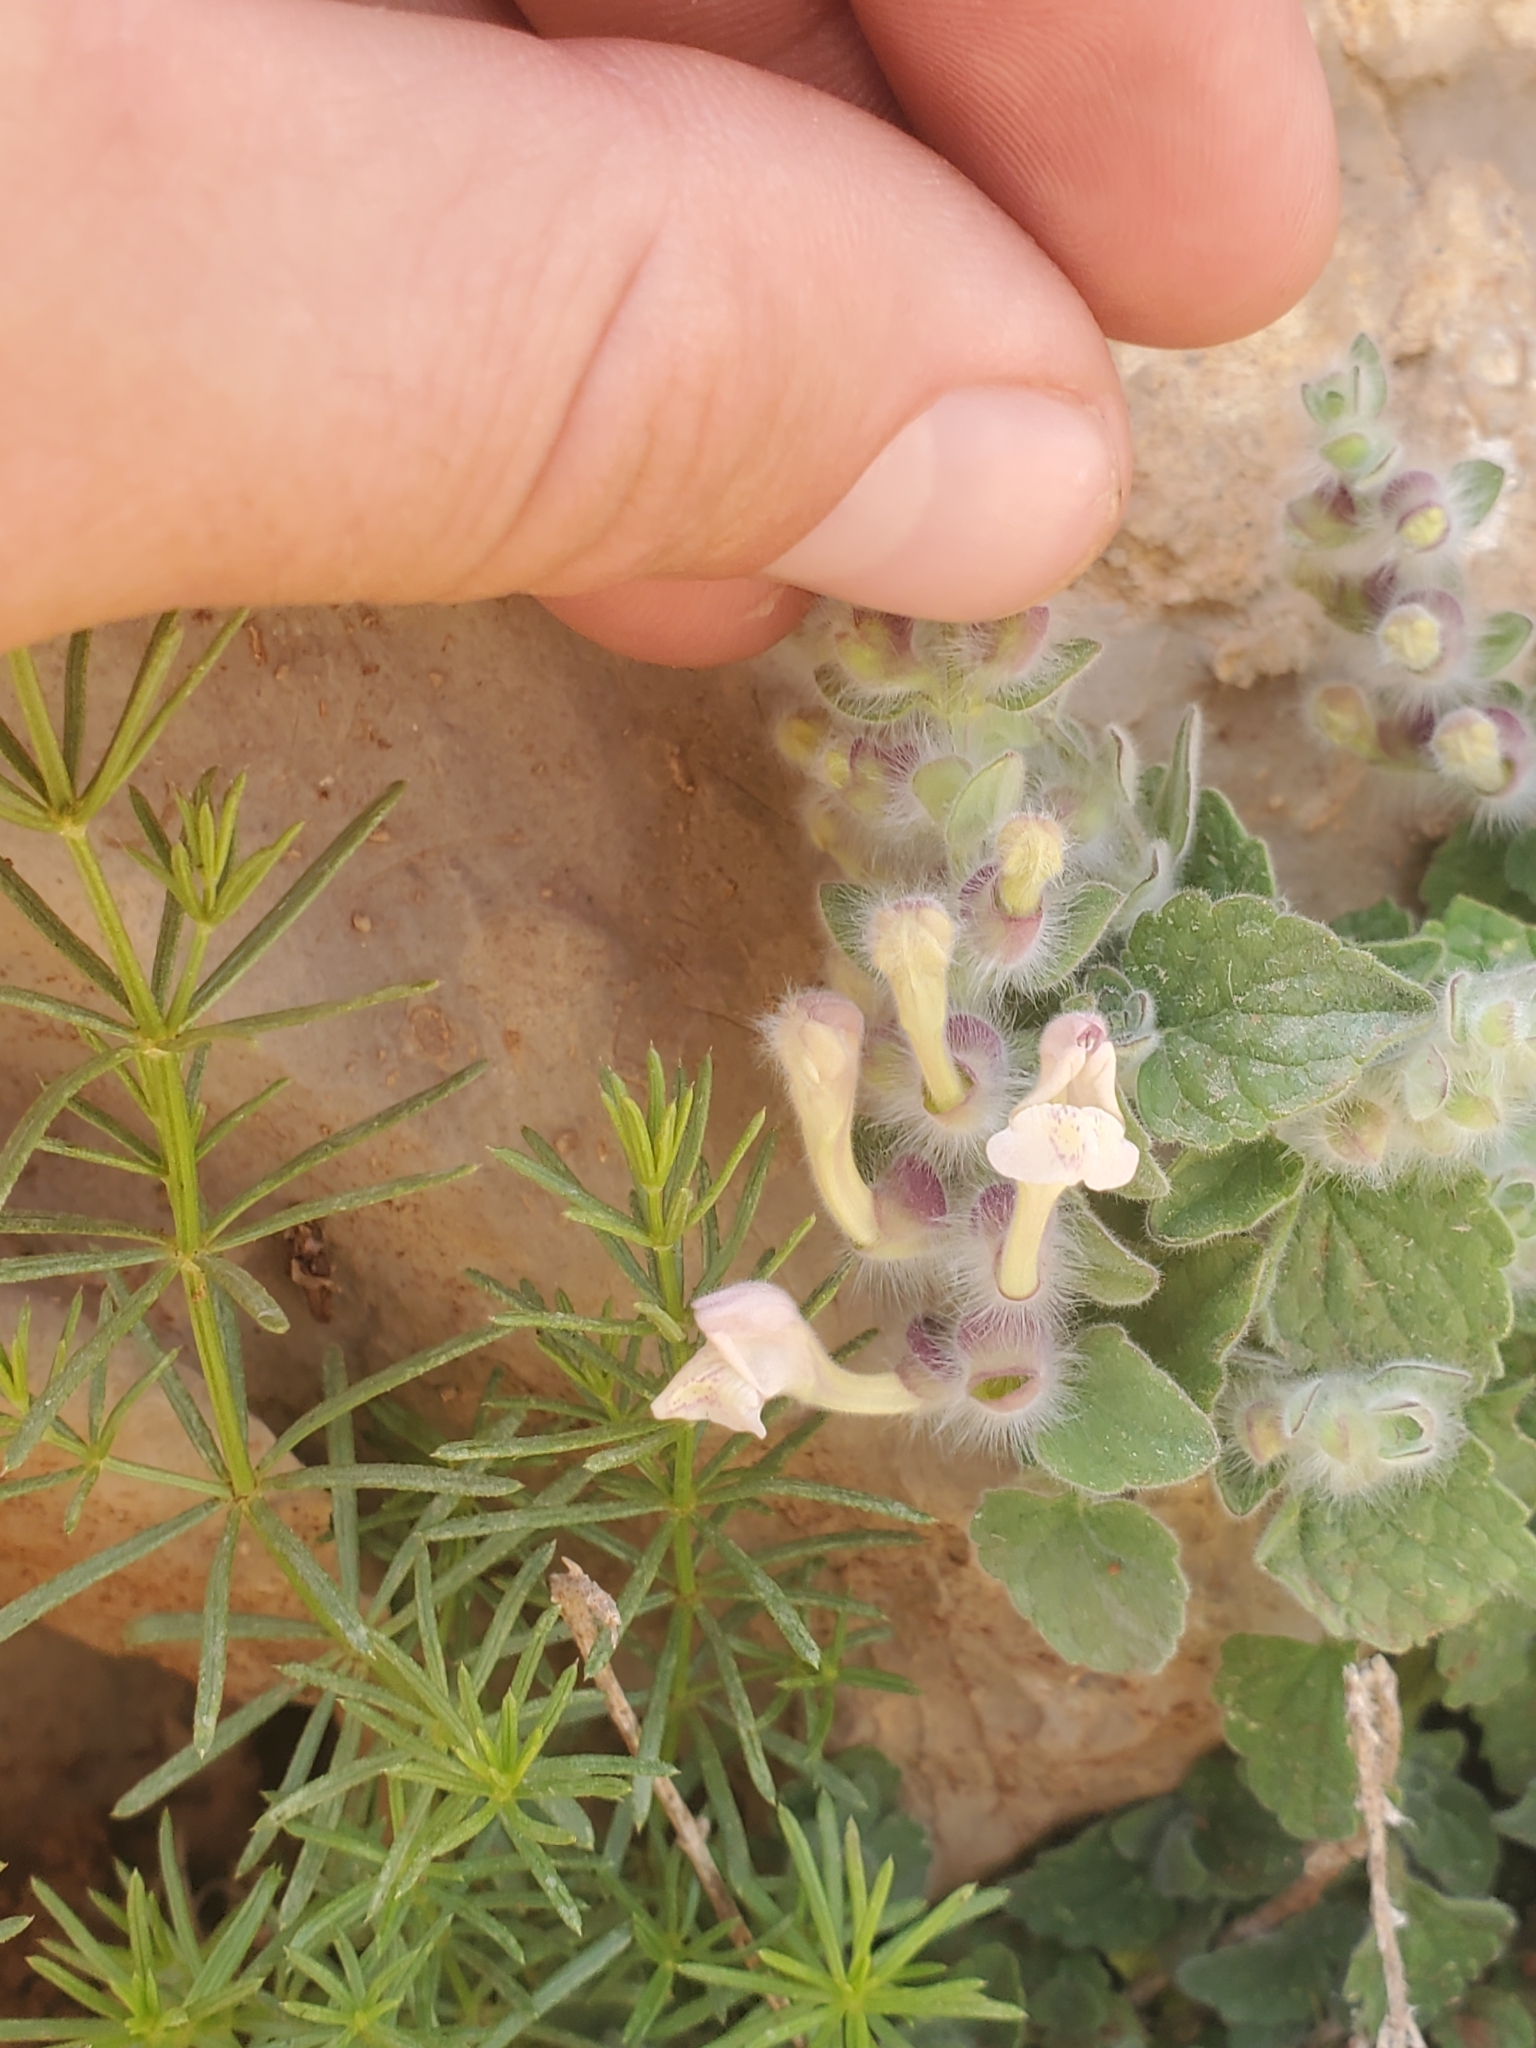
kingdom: Plantae
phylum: Tracheophyta
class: Magnoliopsida
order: Lamiales
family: Lamiaceae
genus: Scutellaria
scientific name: Scutellaria utriculata
